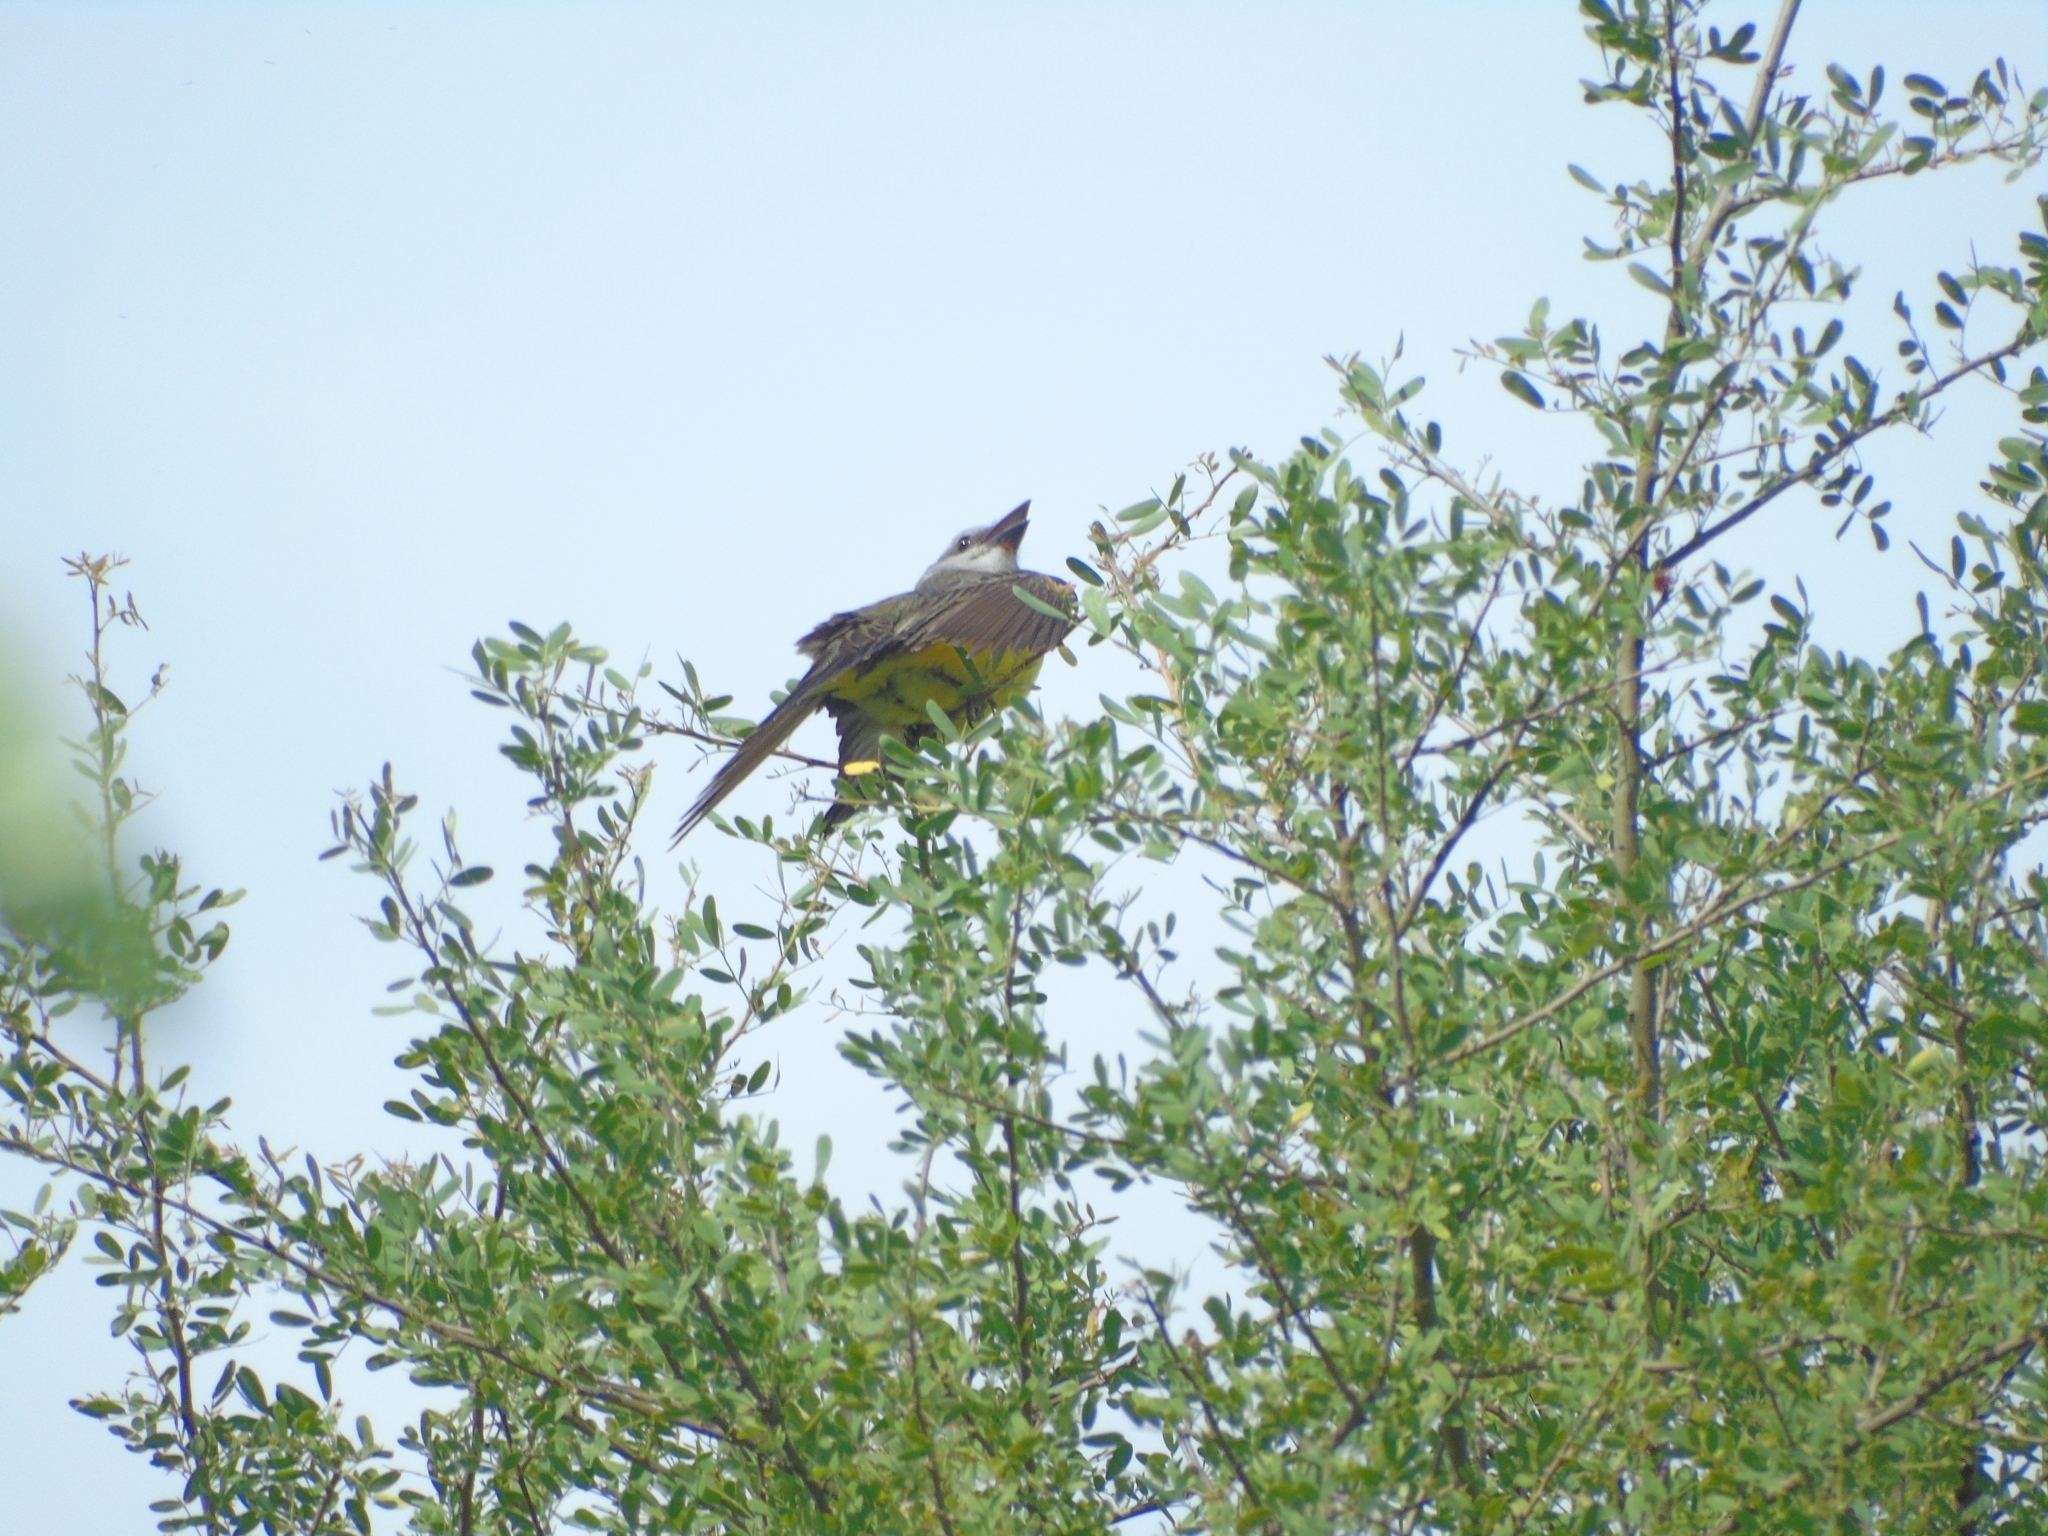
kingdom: Animalia
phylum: Chordata
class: Aves
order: Passeriformes
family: Tyrannidae
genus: Tyrannus
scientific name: Tyrannus melancholicus
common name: Tropical kingbird
